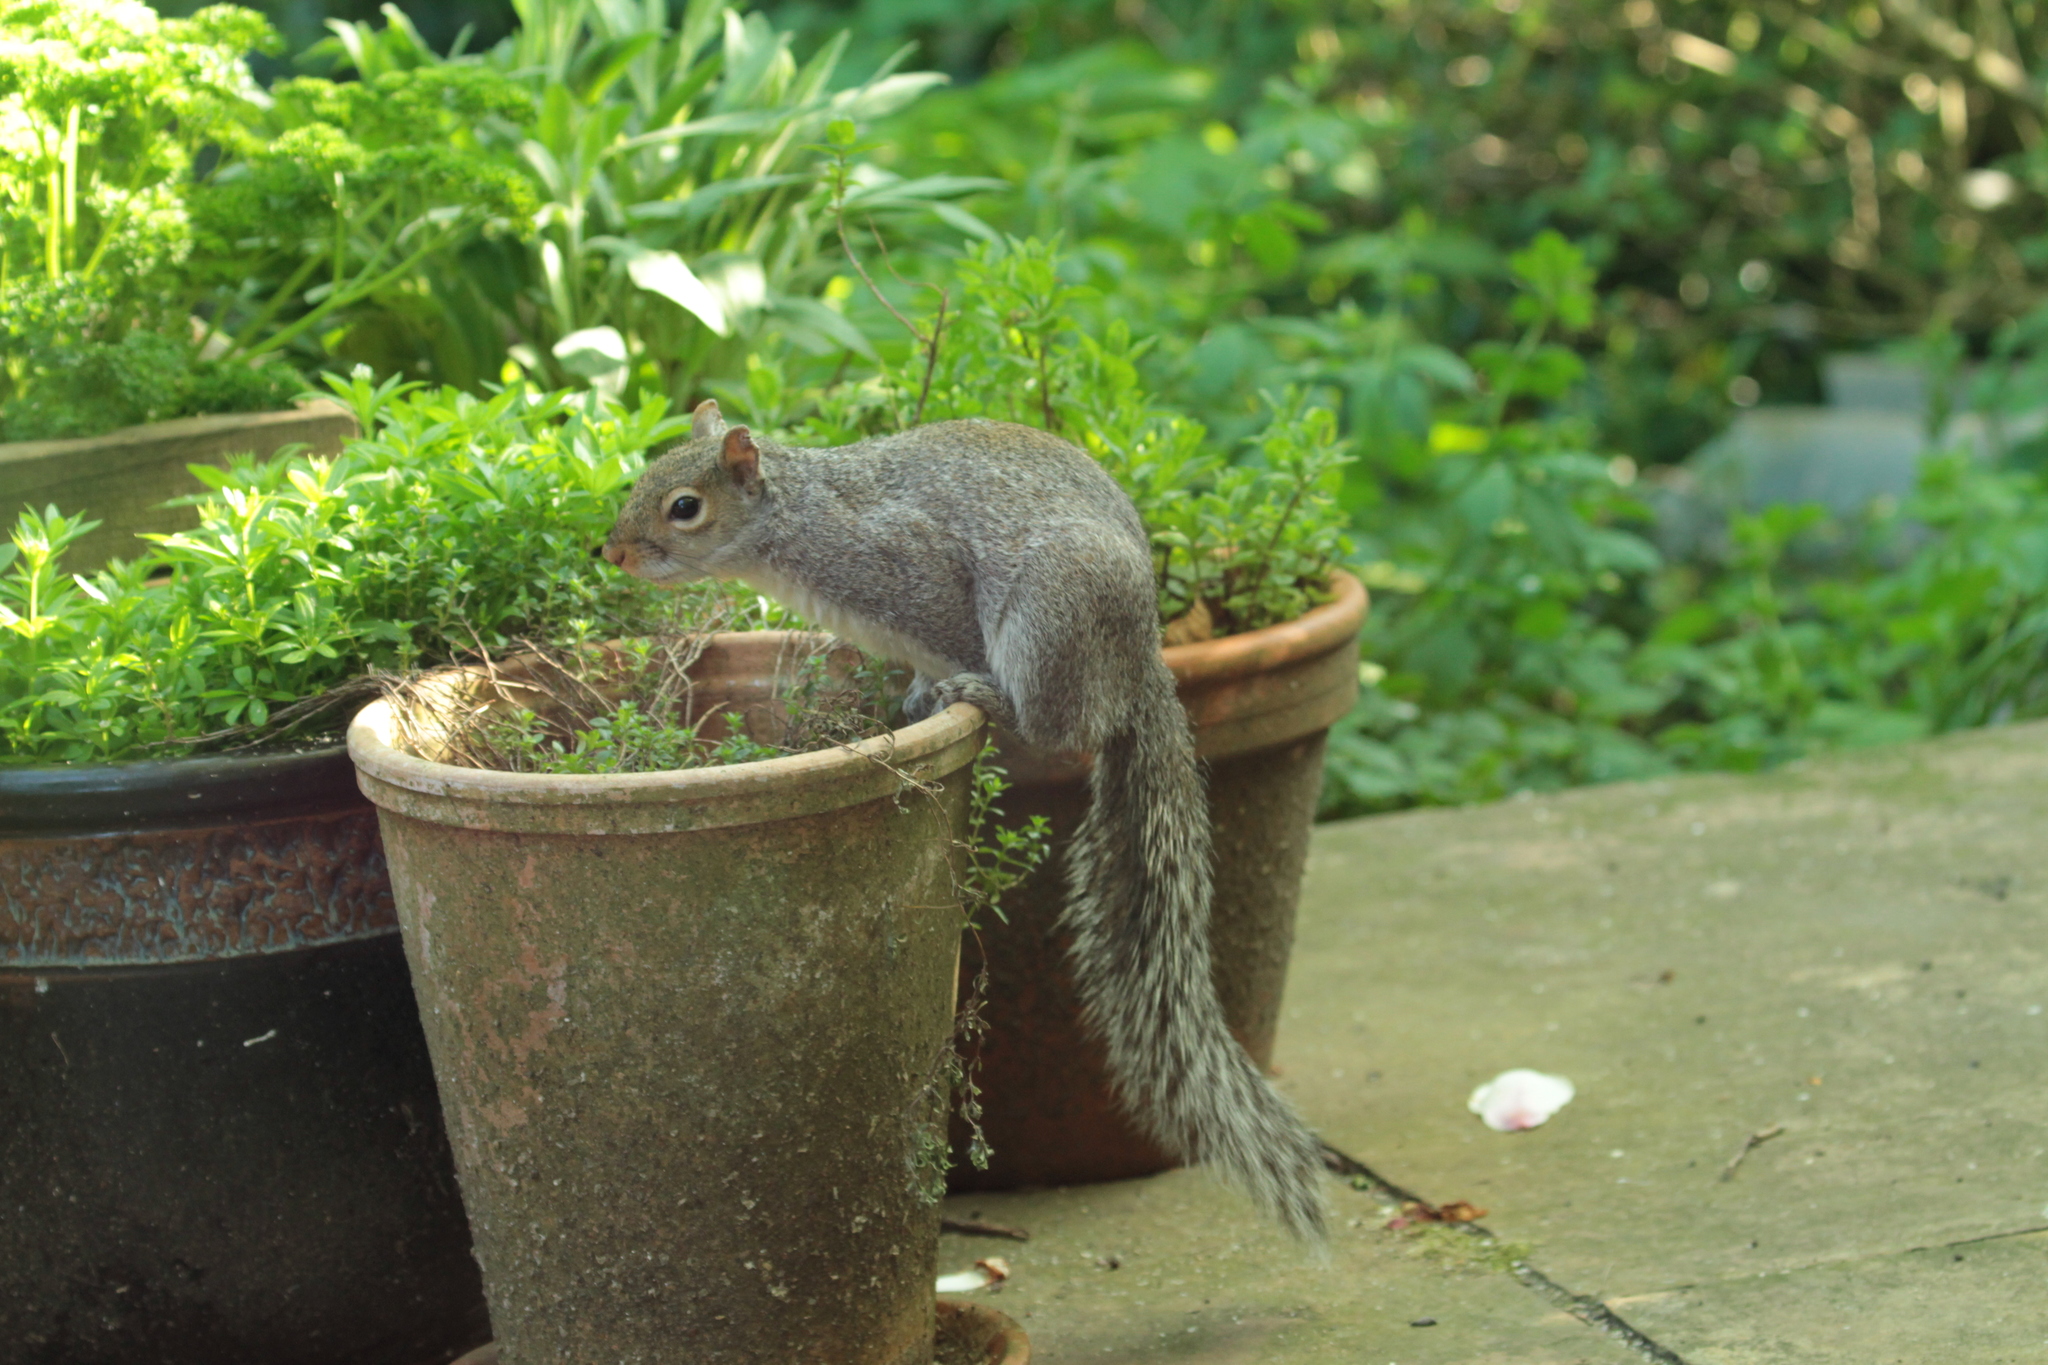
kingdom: Animalia
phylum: Chordata
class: Mammalia
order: Rodentia
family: Sciuridae
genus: Sciurus
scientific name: Sciurus carolinensis
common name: Eastern gray squirrel
